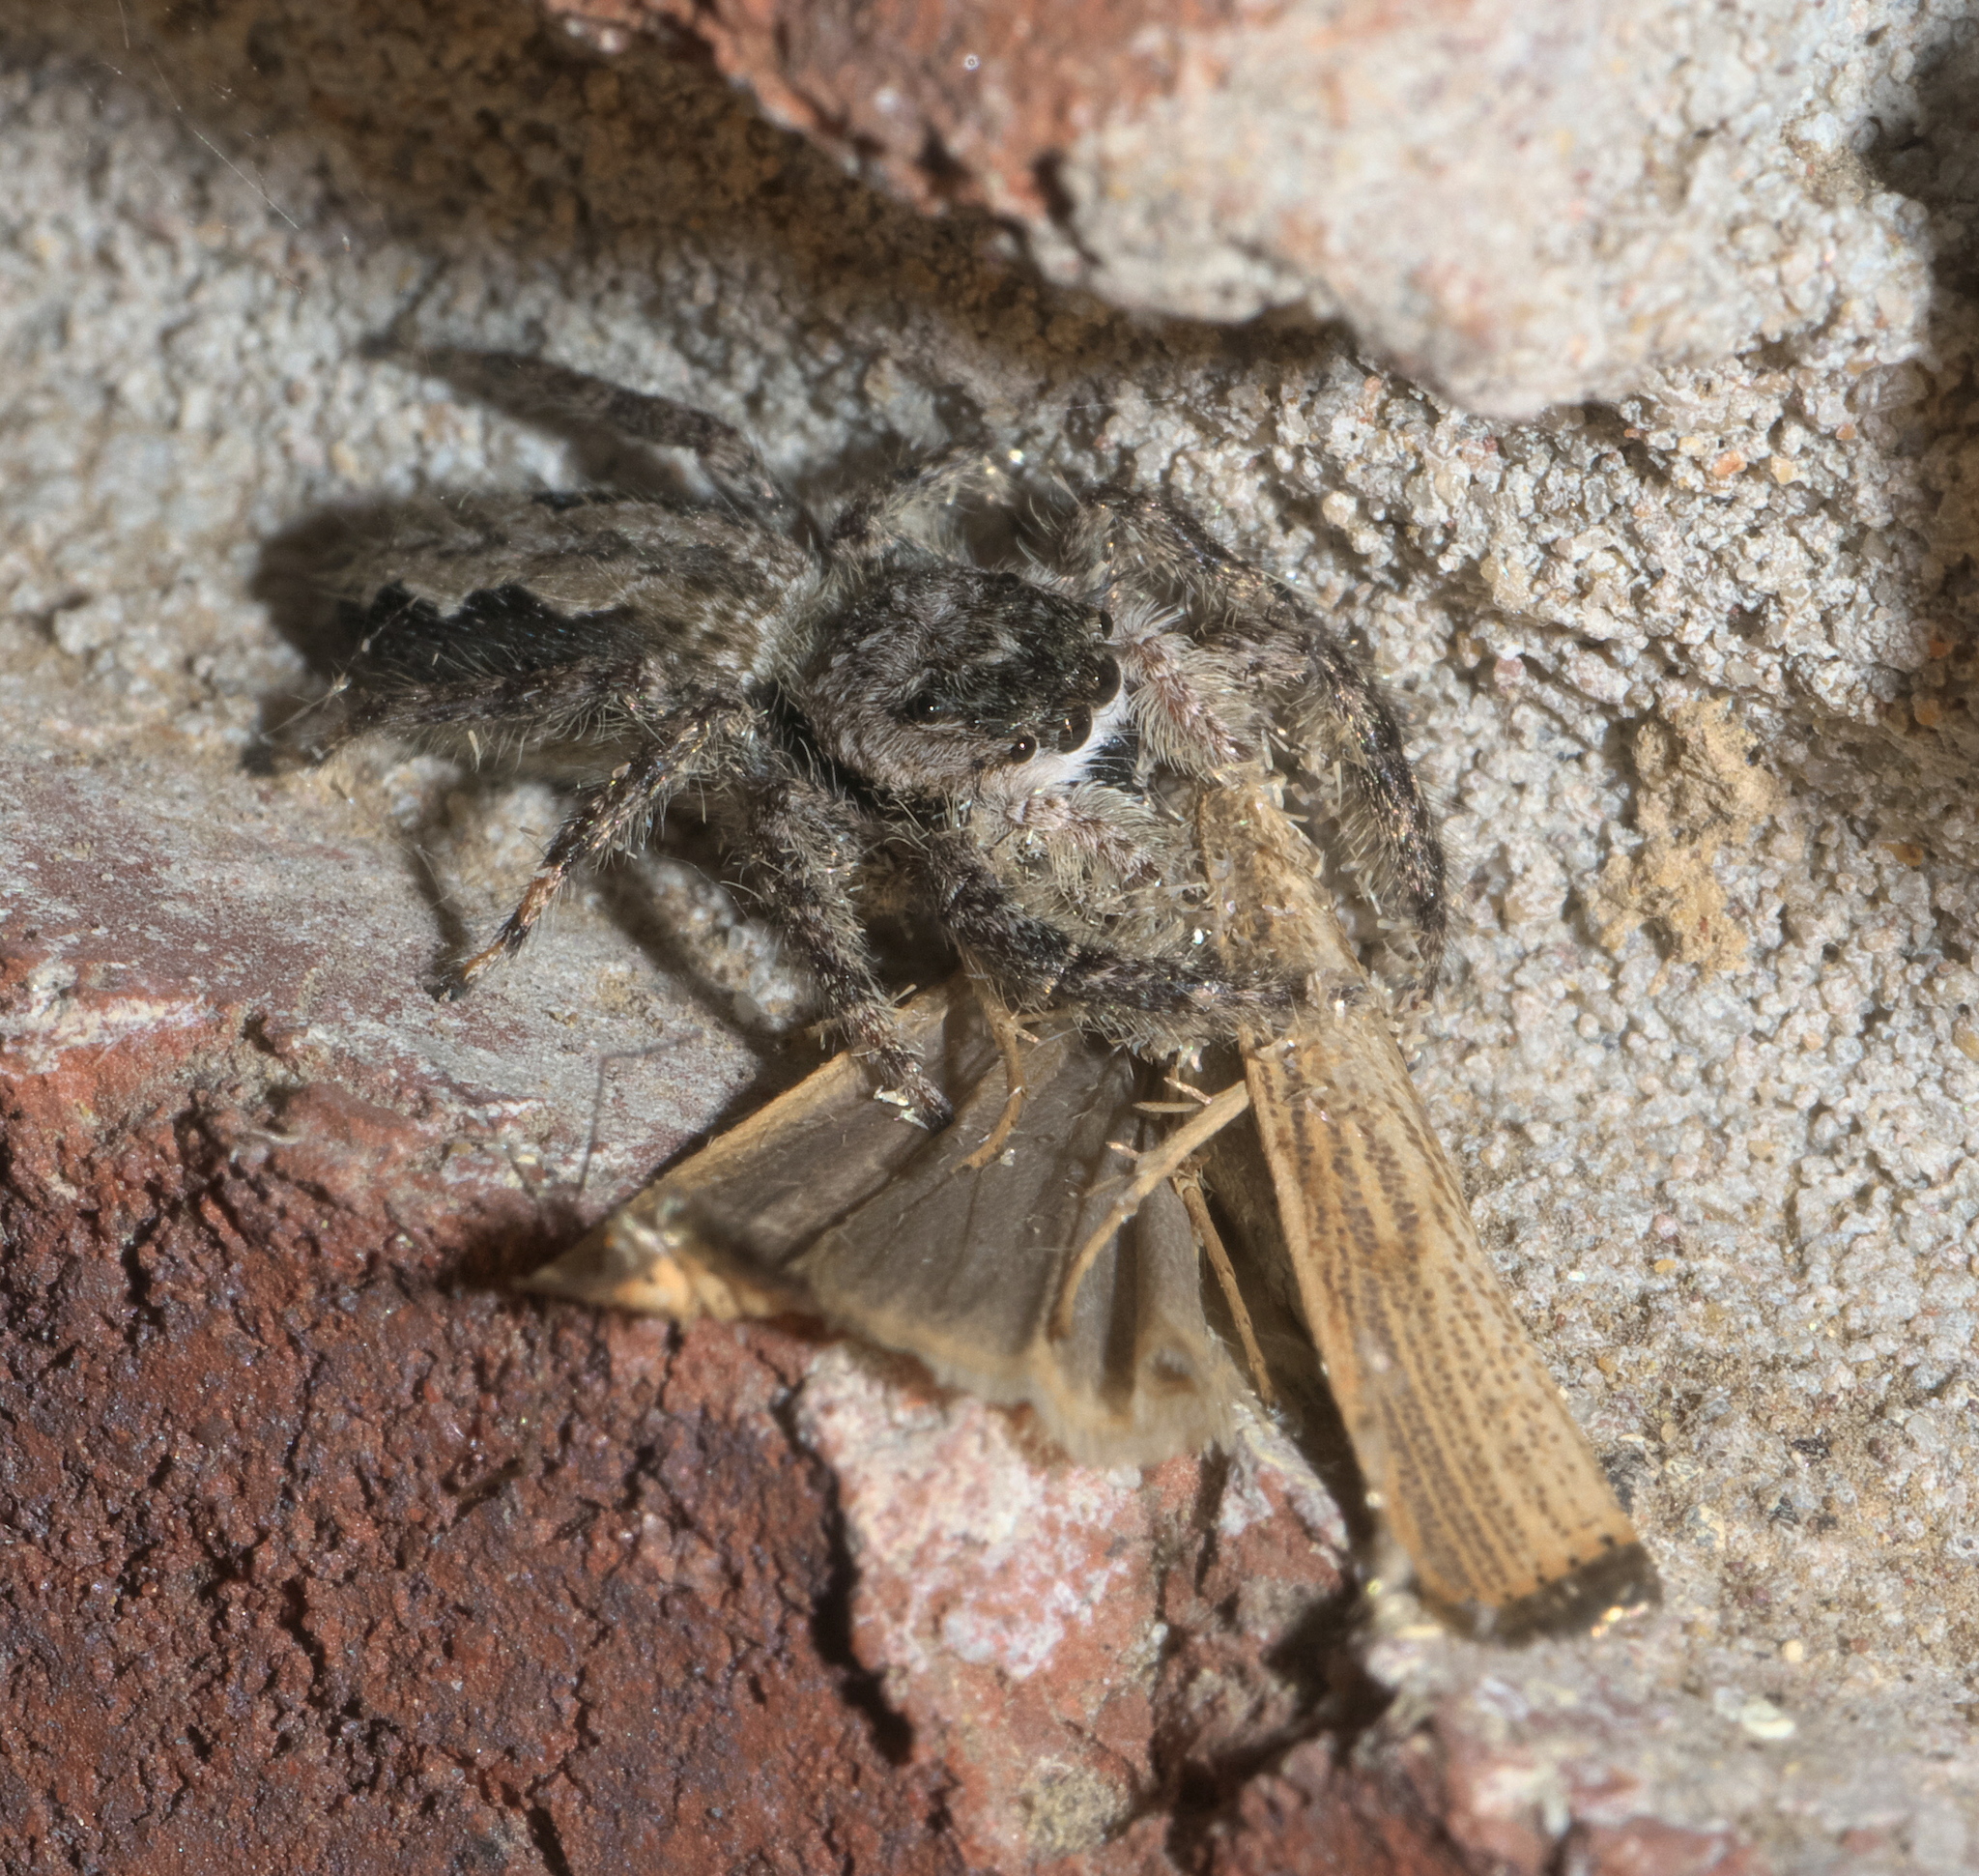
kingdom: Animalia
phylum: Arthropoda
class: Arachnida
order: Araneae
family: Salticidae
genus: Platycryptus
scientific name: Platycryptus undatus
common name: Tan jumping spider
